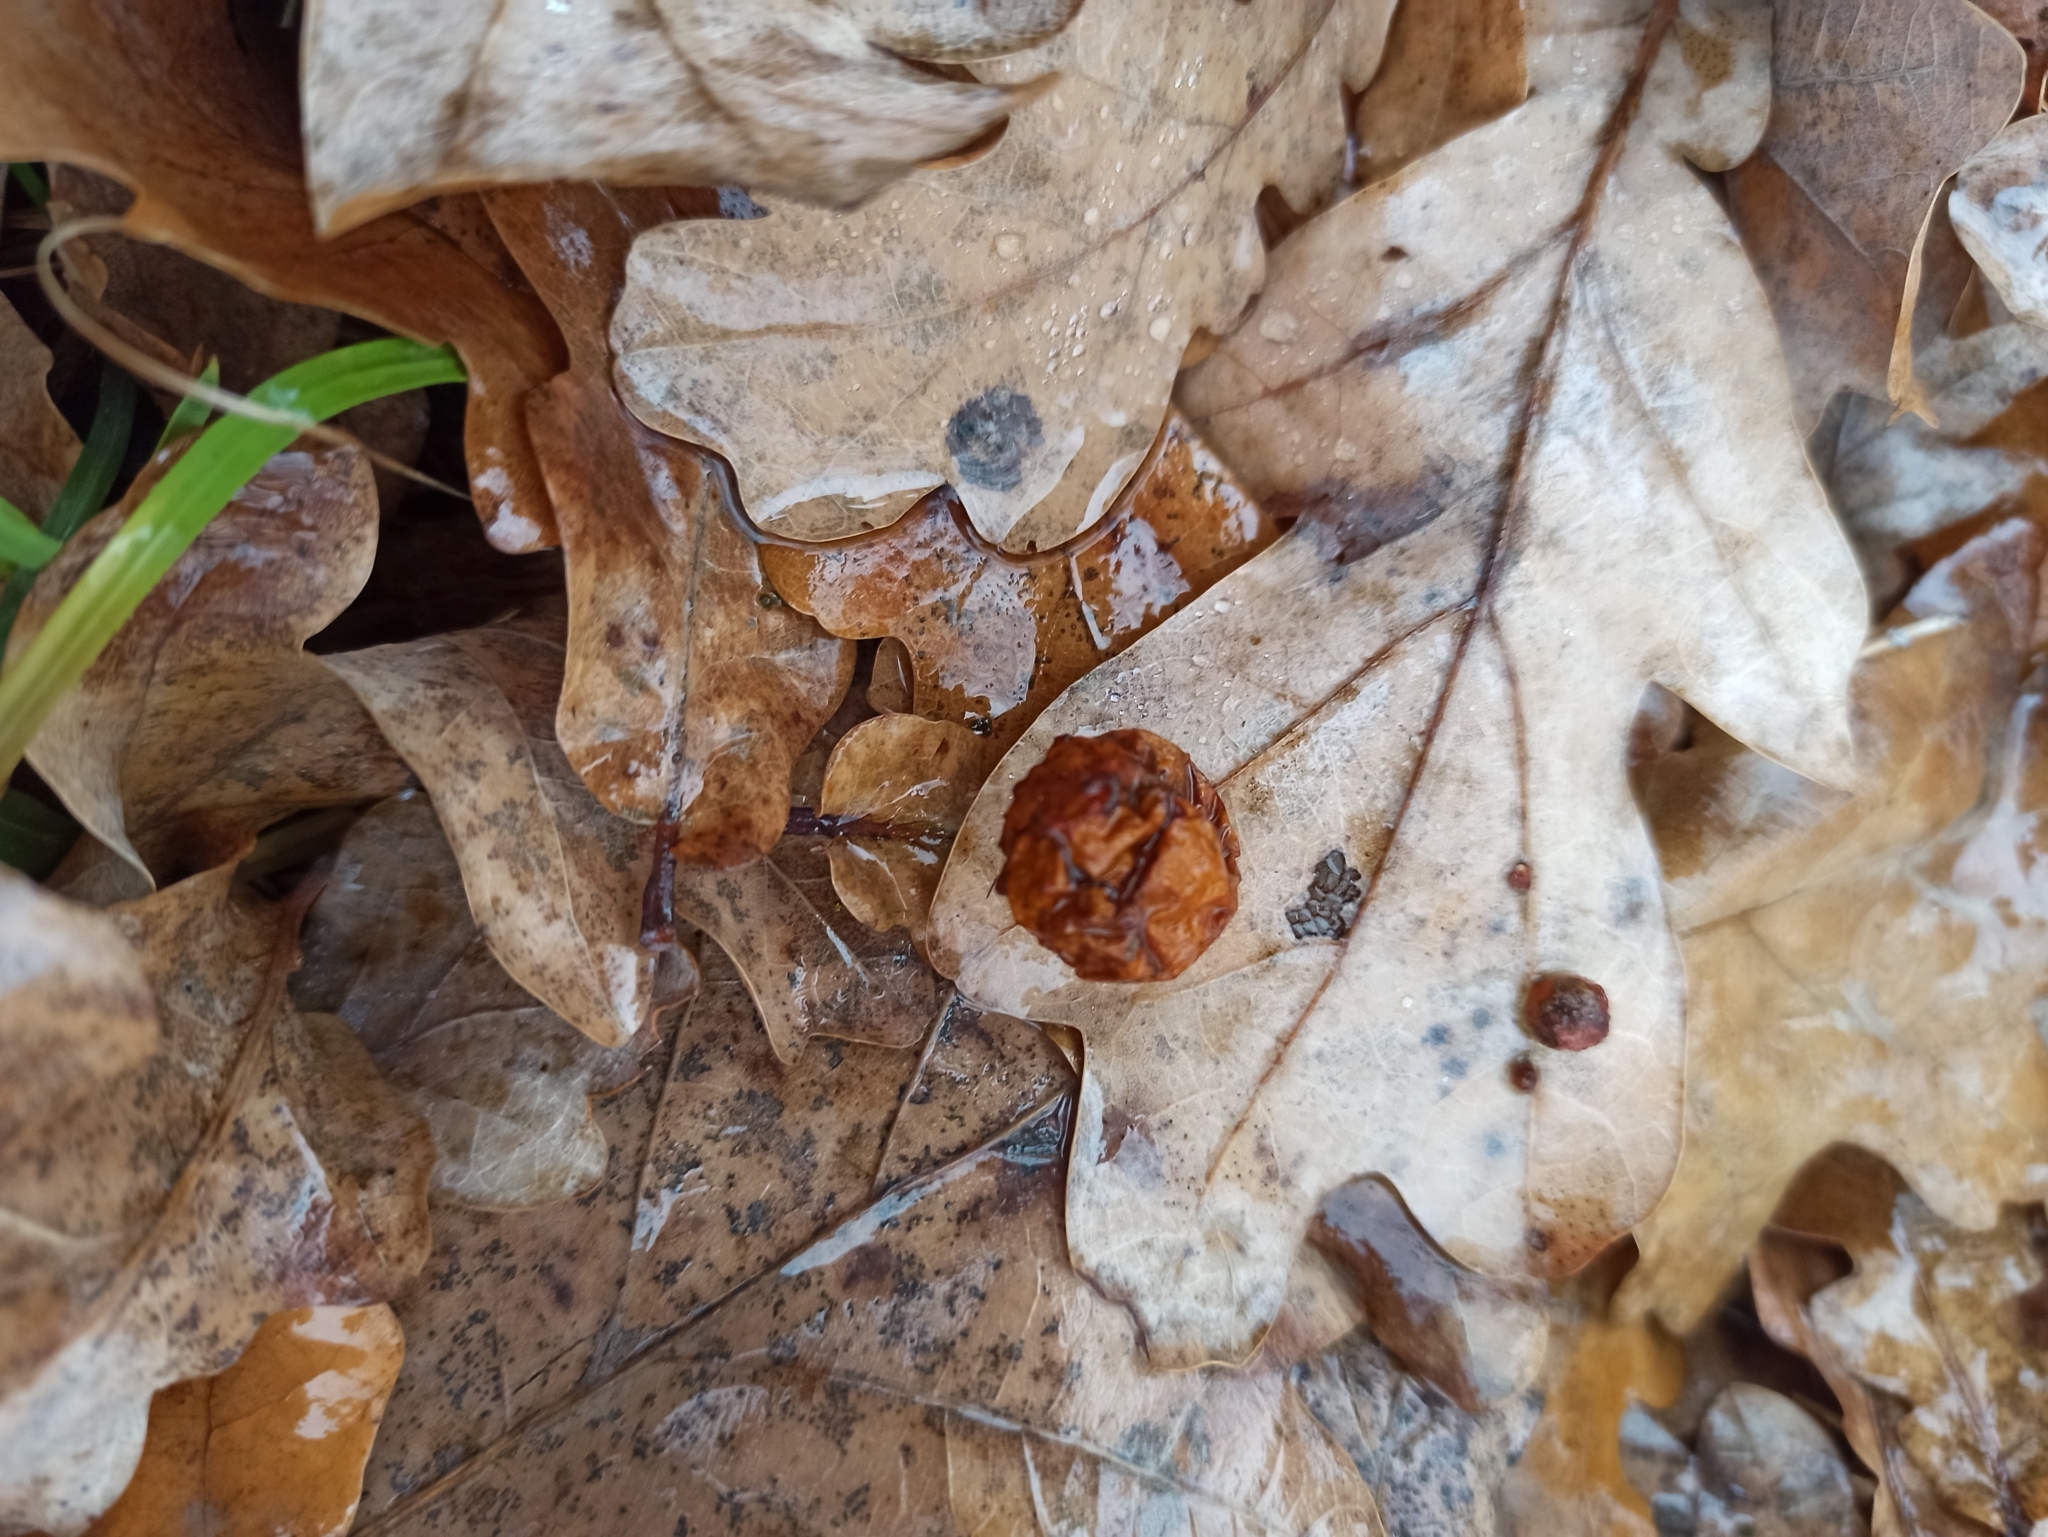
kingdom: Animalia
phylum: Arthropoda
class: Insecta
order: Hymenoptera
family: Cynipidae
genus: Cynips
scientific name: Cynips quercusfolii
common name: Cherry gall
